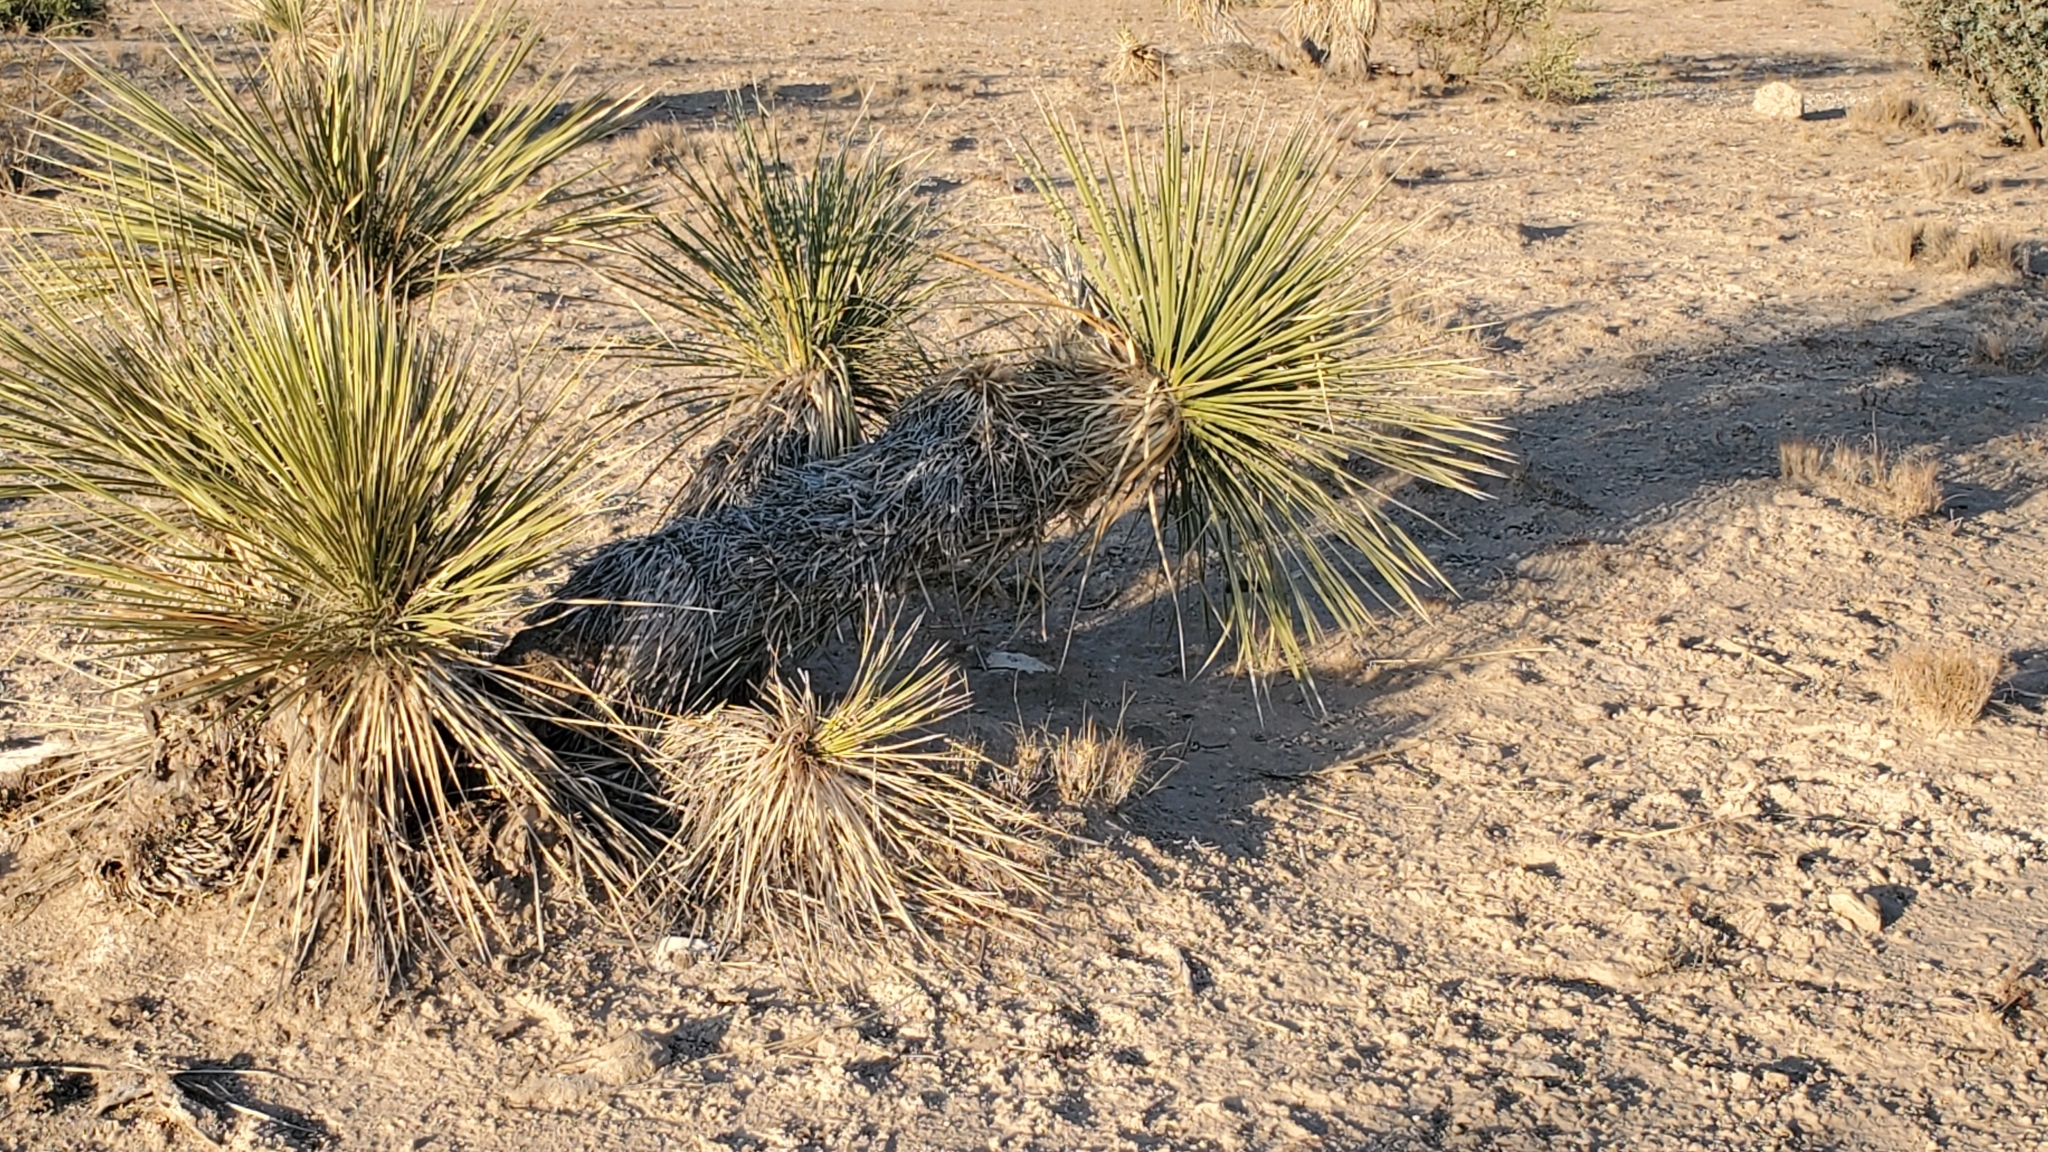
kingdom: Plantae
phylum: Tracheophyta
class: Liliopsida
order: Asparagales
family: Asparagaceae
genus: Yucca
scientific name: Yucca elata
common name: Palmella
